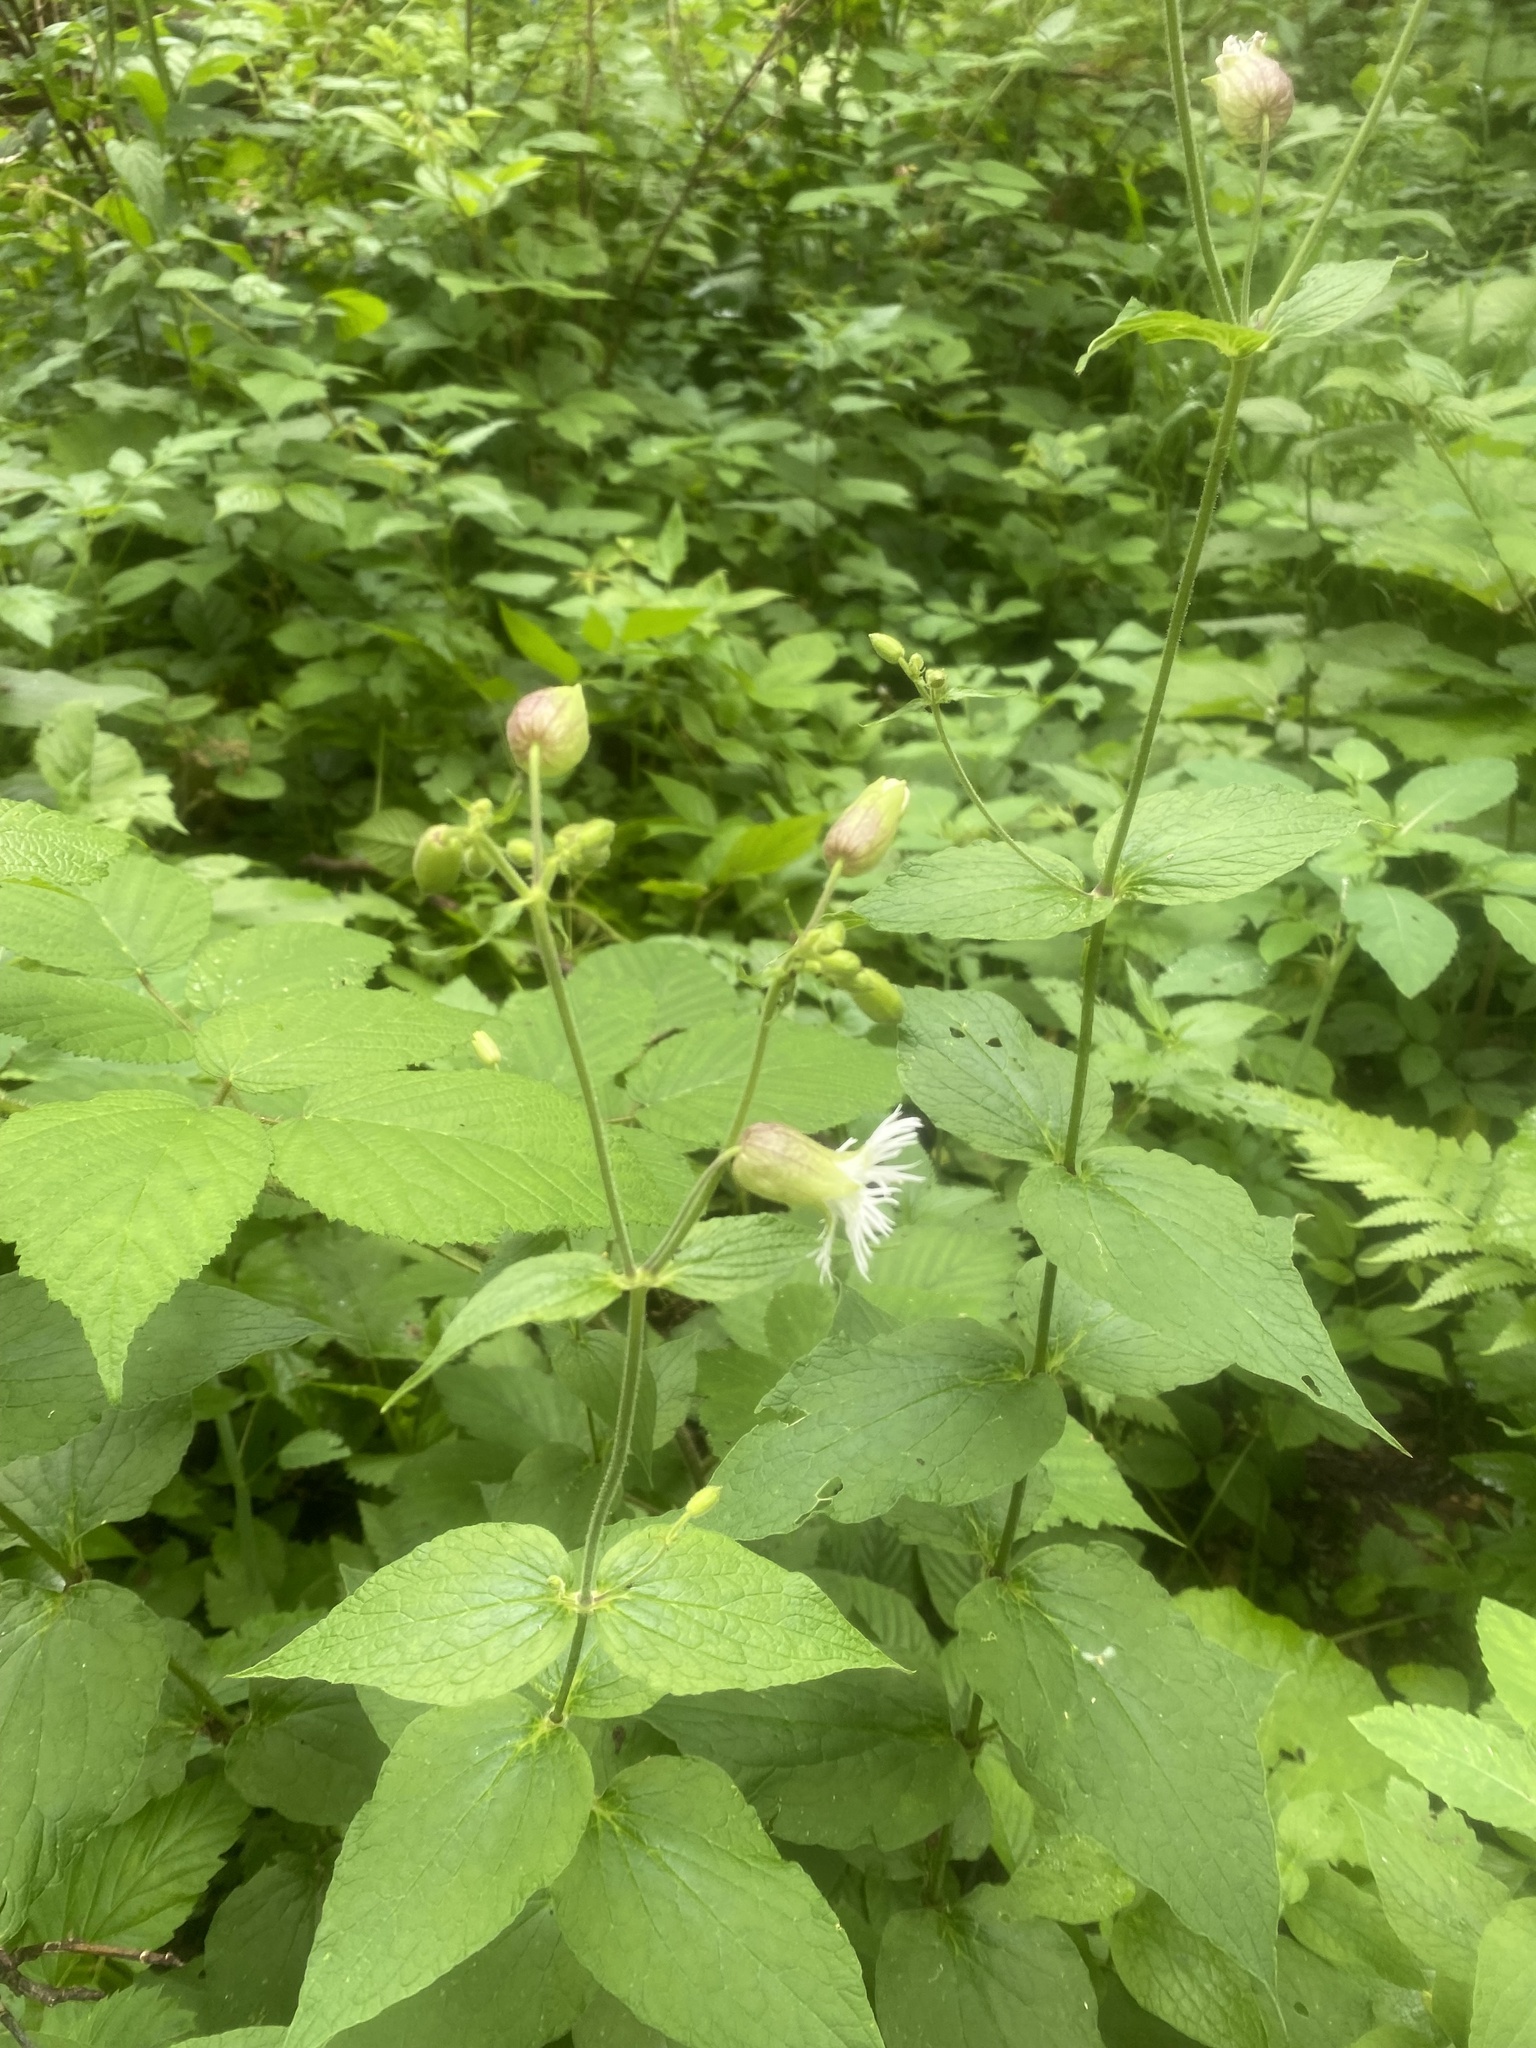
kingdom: Plantae
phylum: Tracheophyta
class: Magnoliopsida
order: Caryophyllales
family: Caryophyllaceae
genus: Silene
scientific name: Silene
